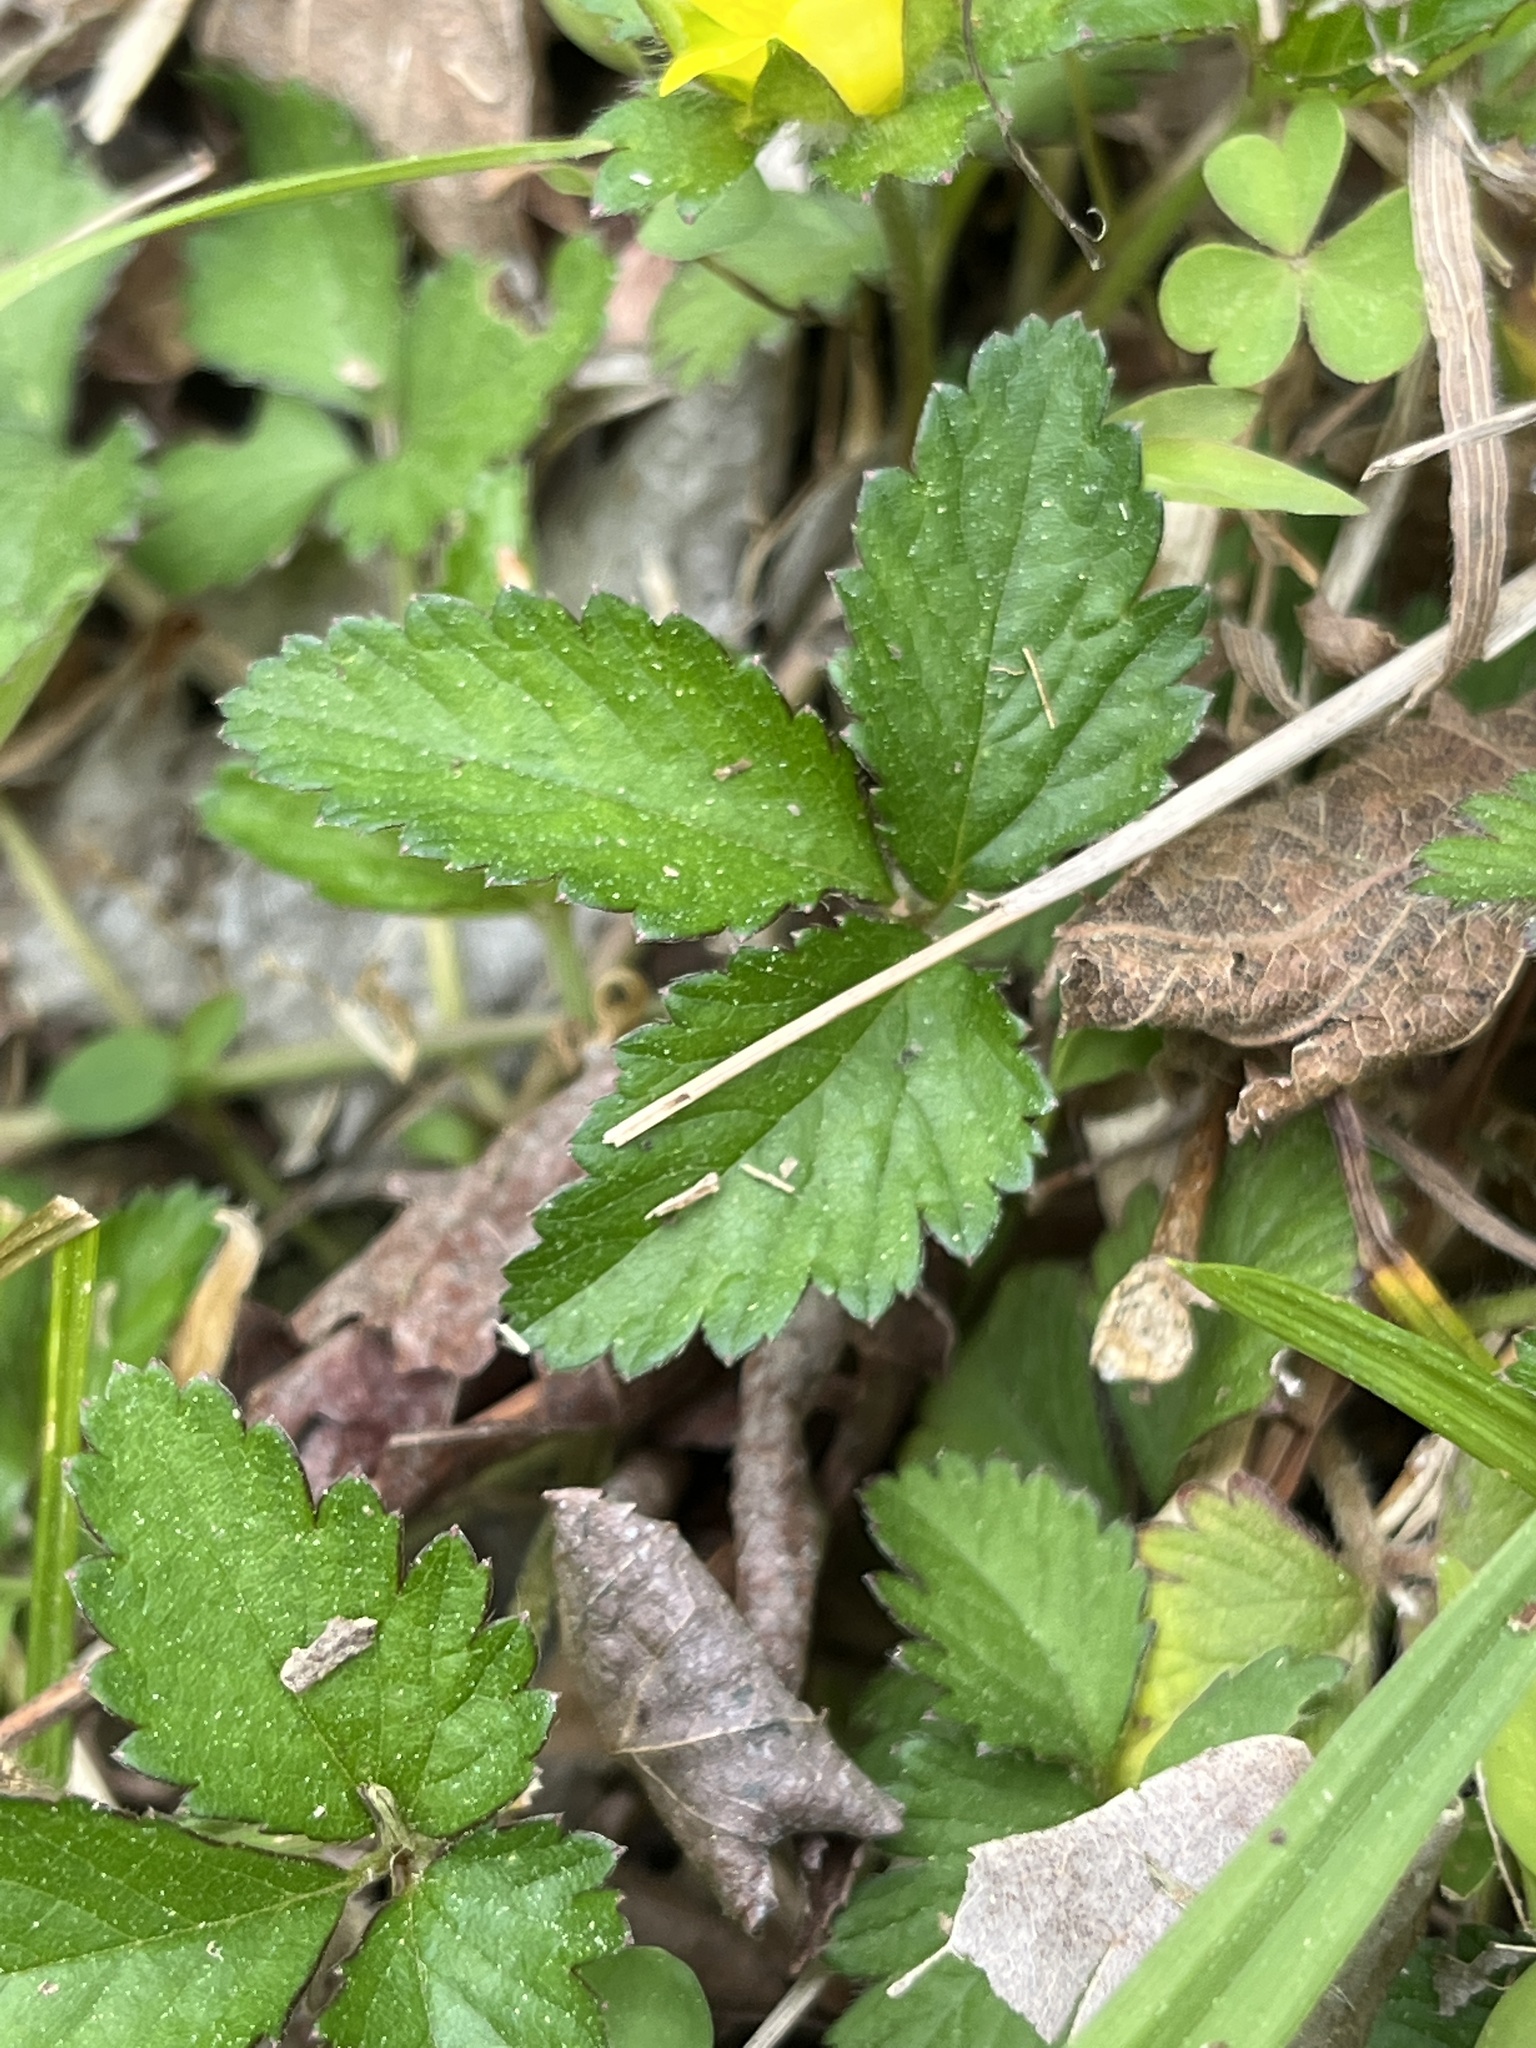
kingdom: Plantae
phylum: Tracheophyta
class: Magnoliopsida
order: Rosales
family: Rosaceae
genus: Potentilla
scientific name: Potentilla indica
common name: Yellow-flowered strawberry
